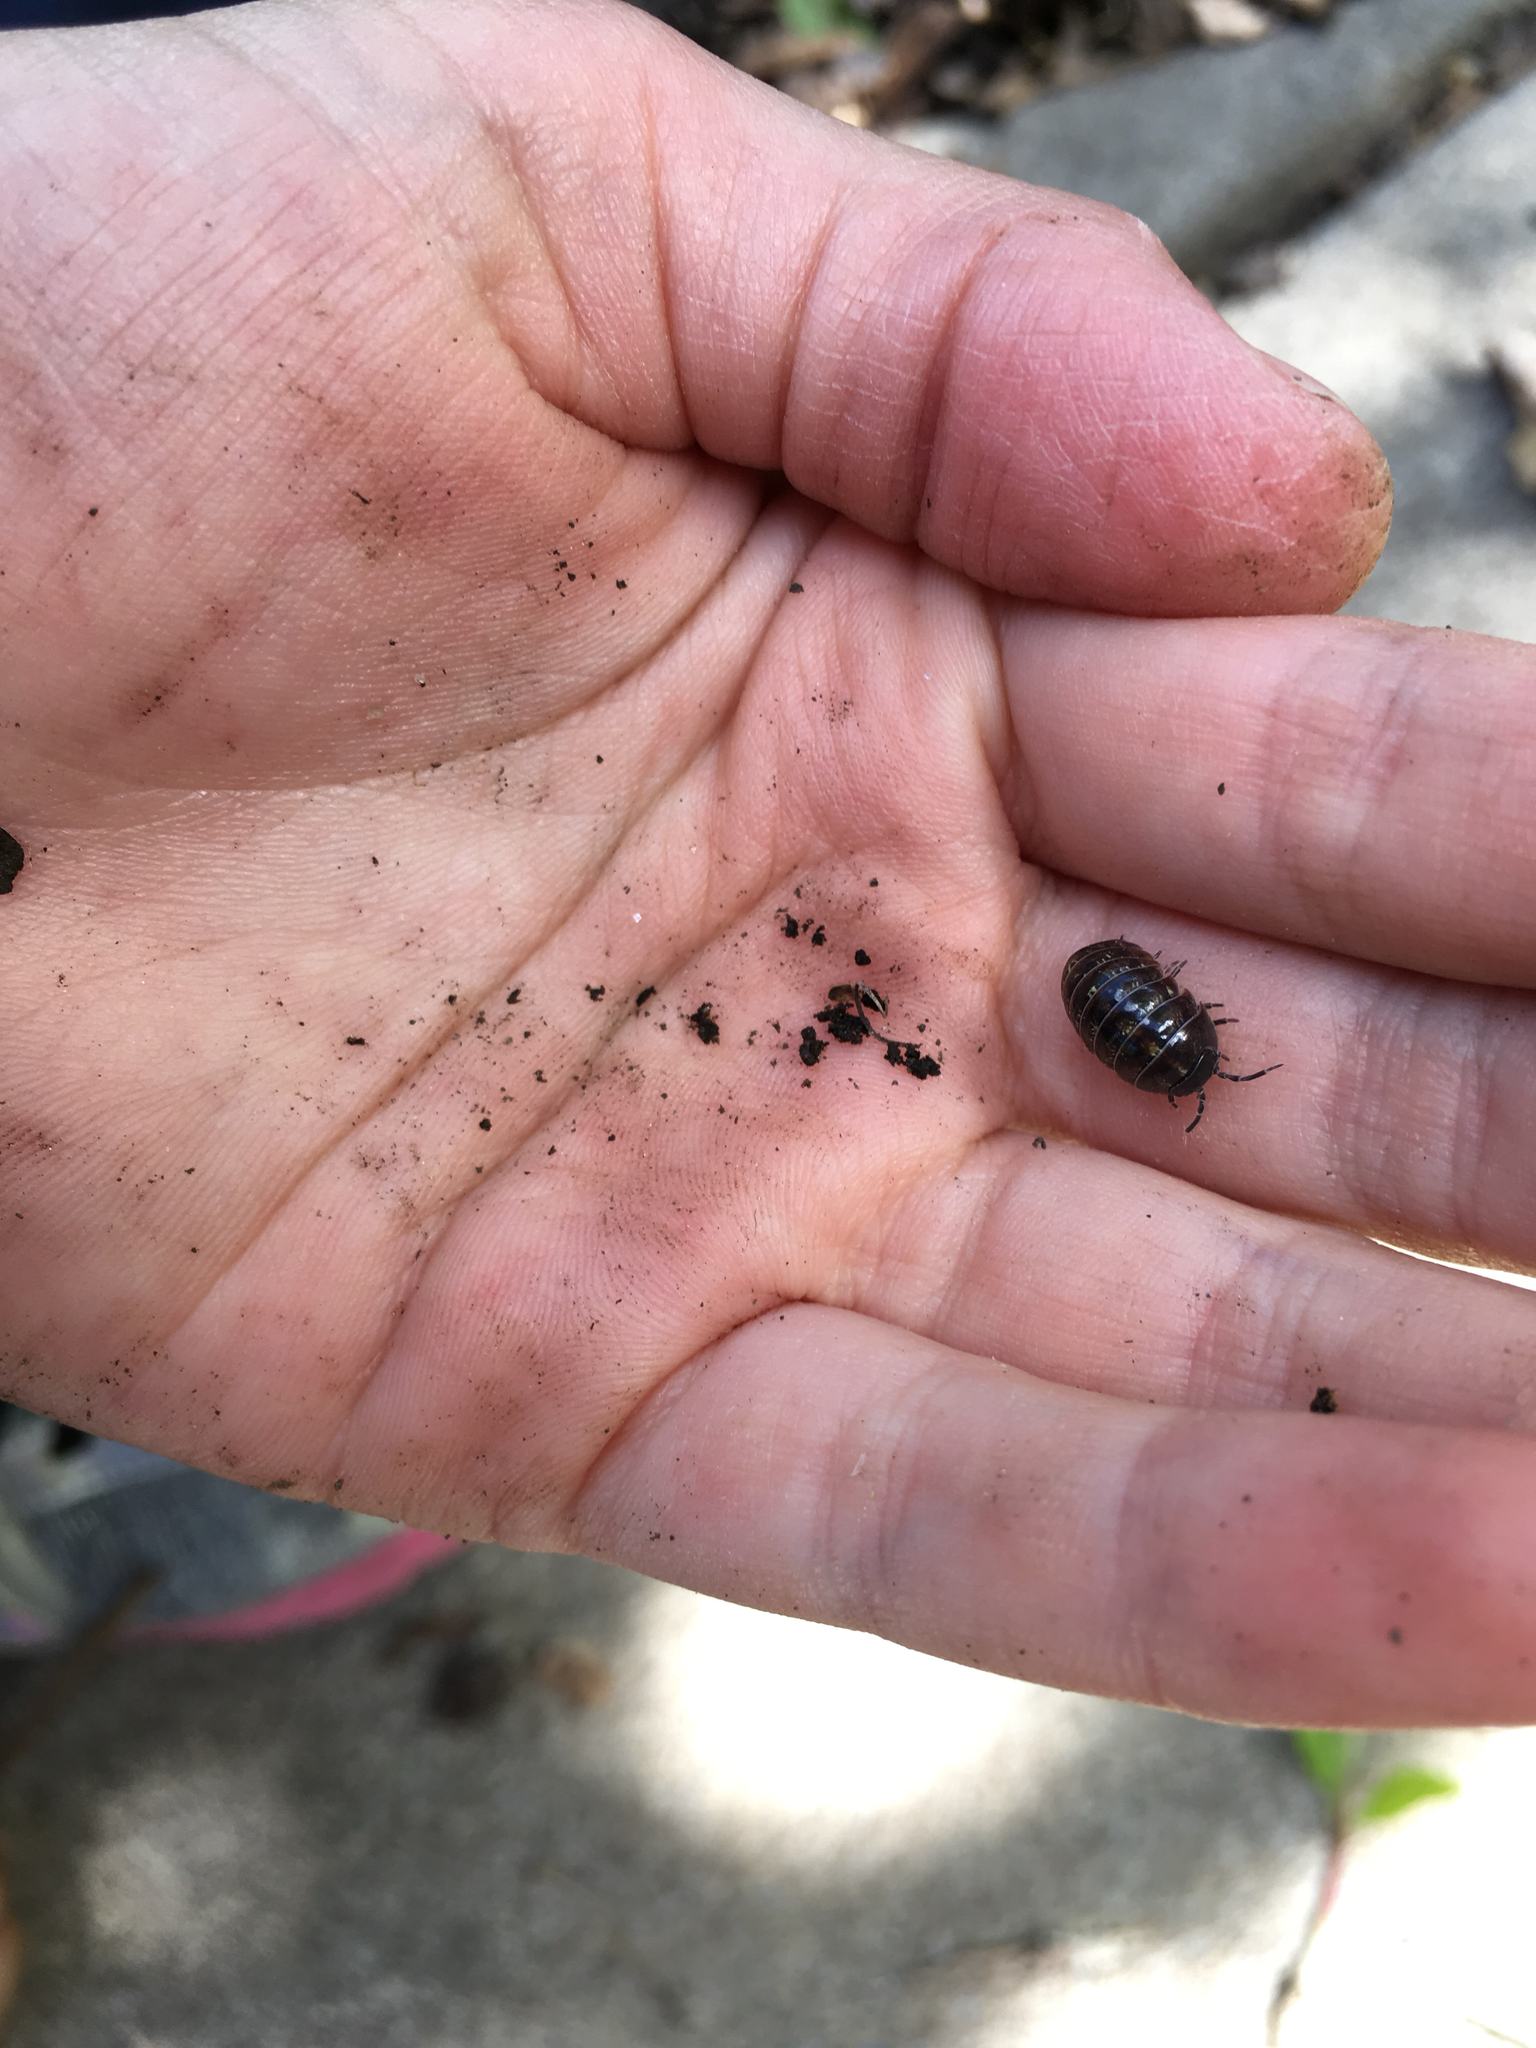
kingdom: Animalia
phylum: Arthropoda
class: Malacostraca
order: Isopoda
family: Armadillidiidae
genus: Armadillidium
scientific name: Armadillidium vulgare
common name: Common pill woodlouse
